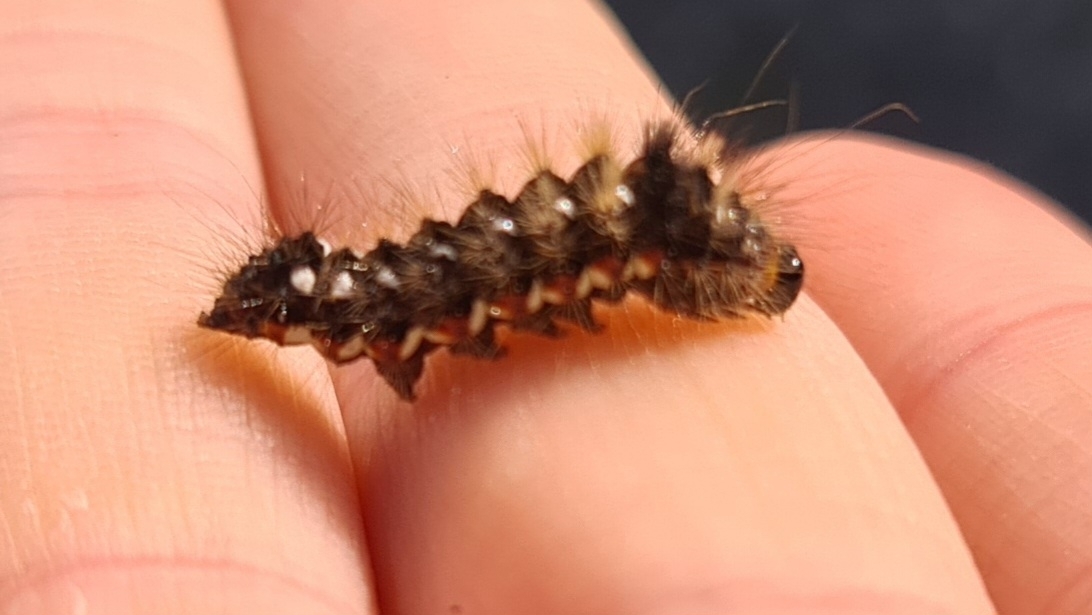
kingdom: Animalia
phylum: Arthropoda
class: Insecta
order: Lepidoptera
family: Noctuidae
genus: Acronicta
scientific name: Acronicta rumicis
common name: Knot grass
